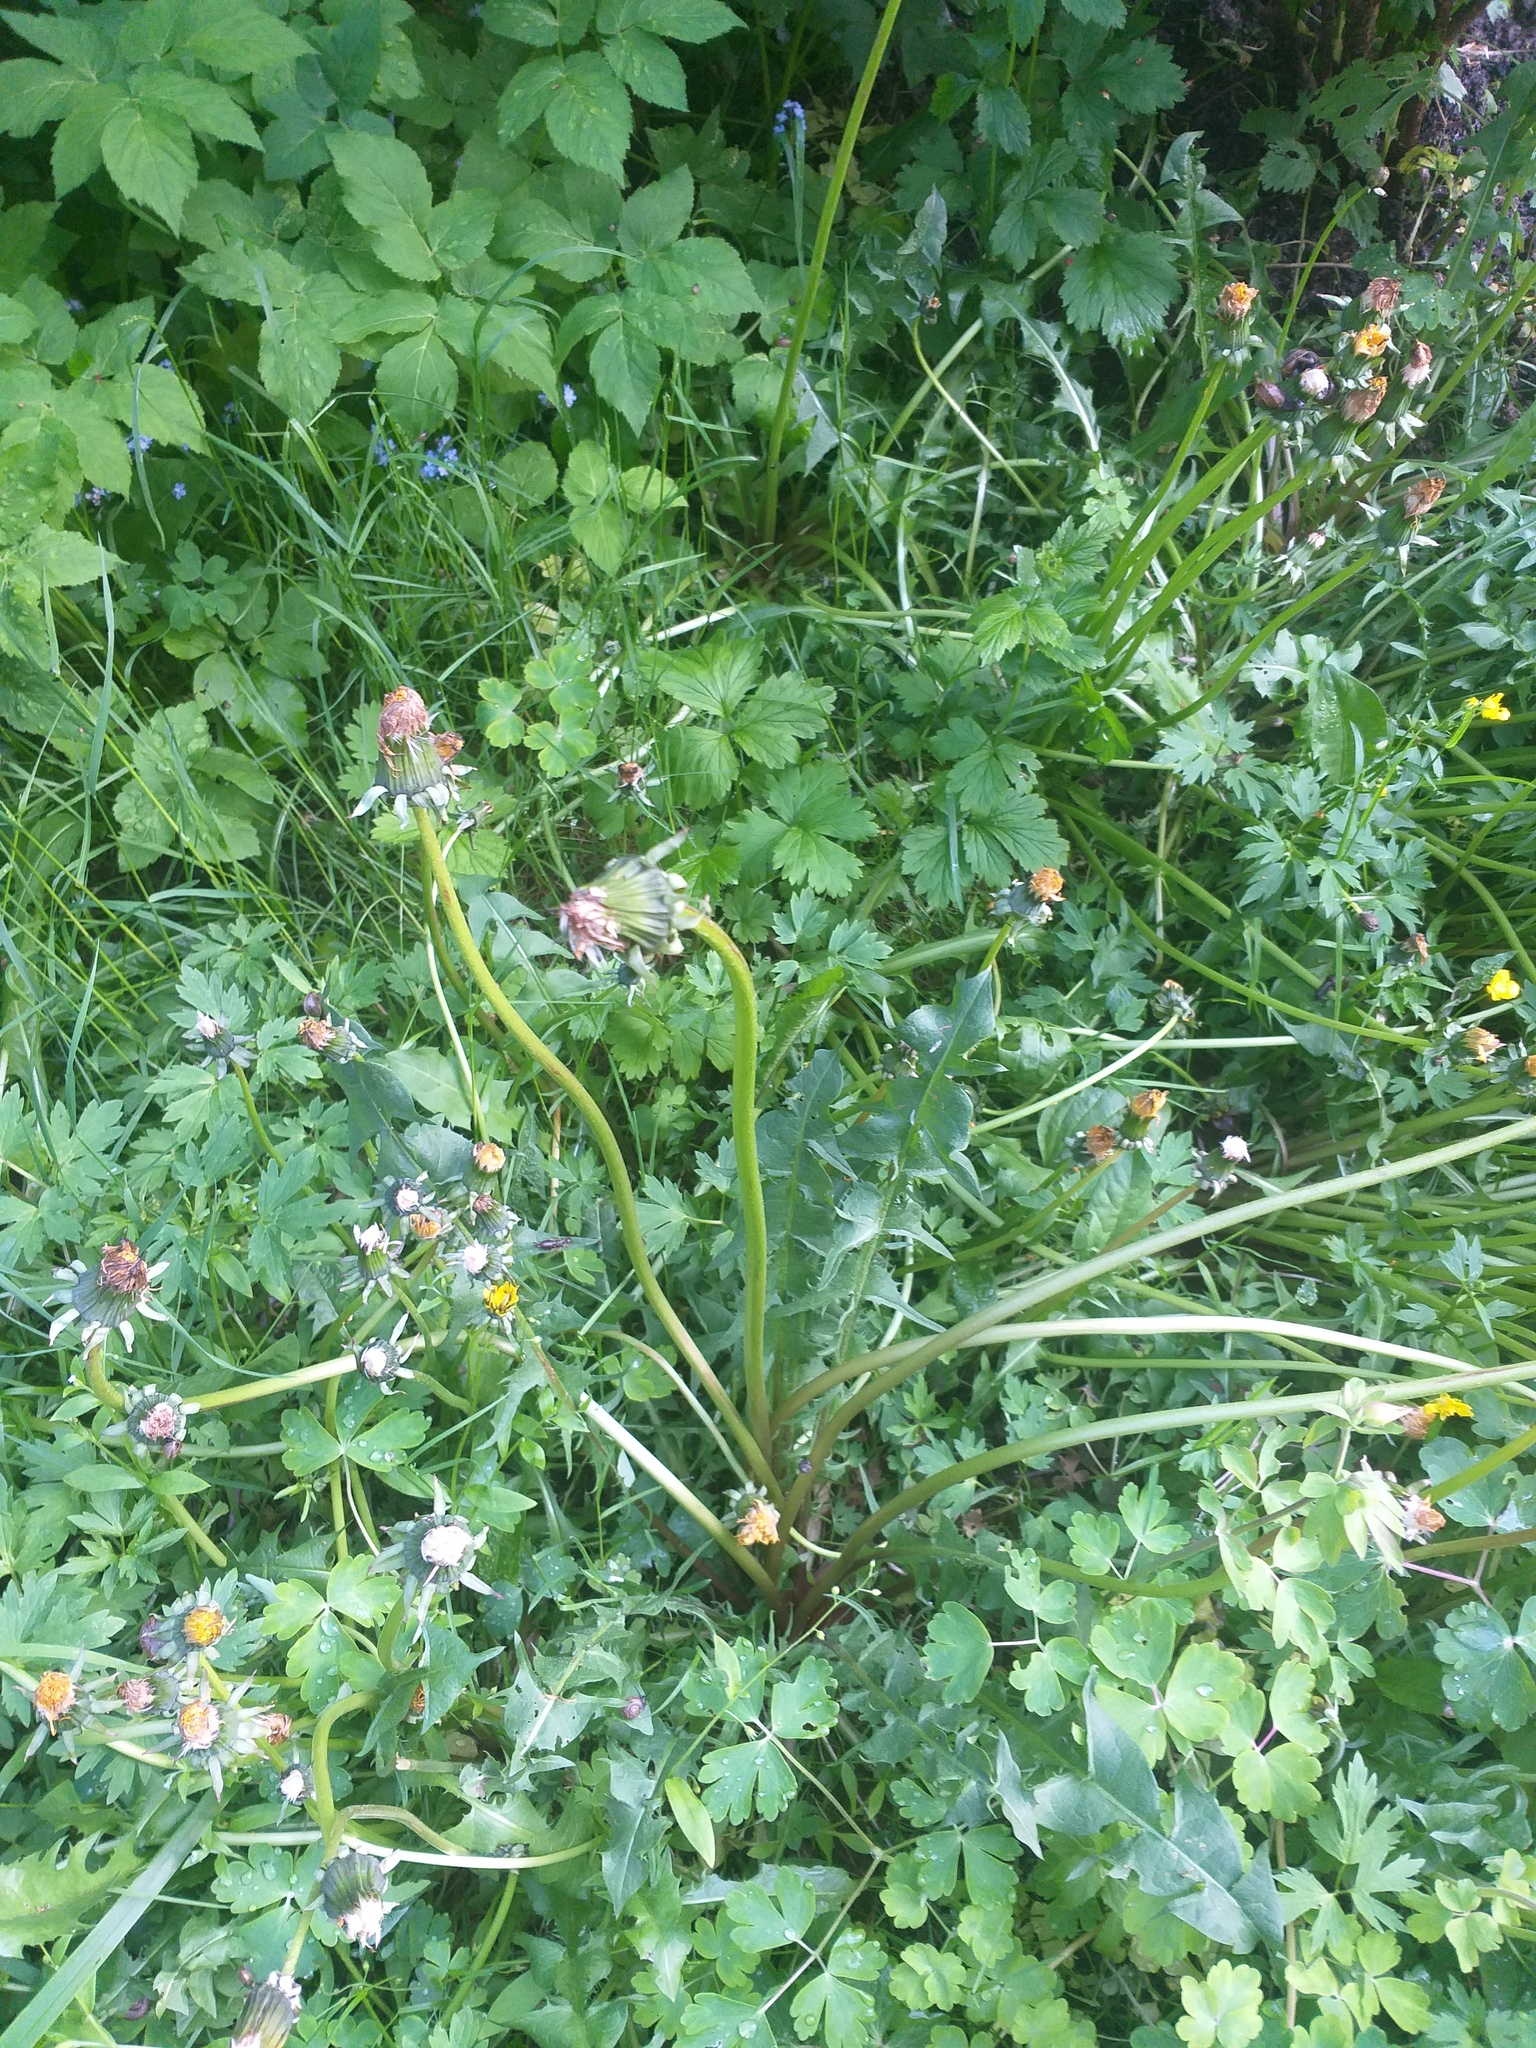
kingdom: Plantae
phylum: Tracheophyta
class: Magnoliopsida
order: Asterales
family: Asteraceae
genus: Taraxacum
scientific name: Taraxacum officinale
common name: Common dandelion
